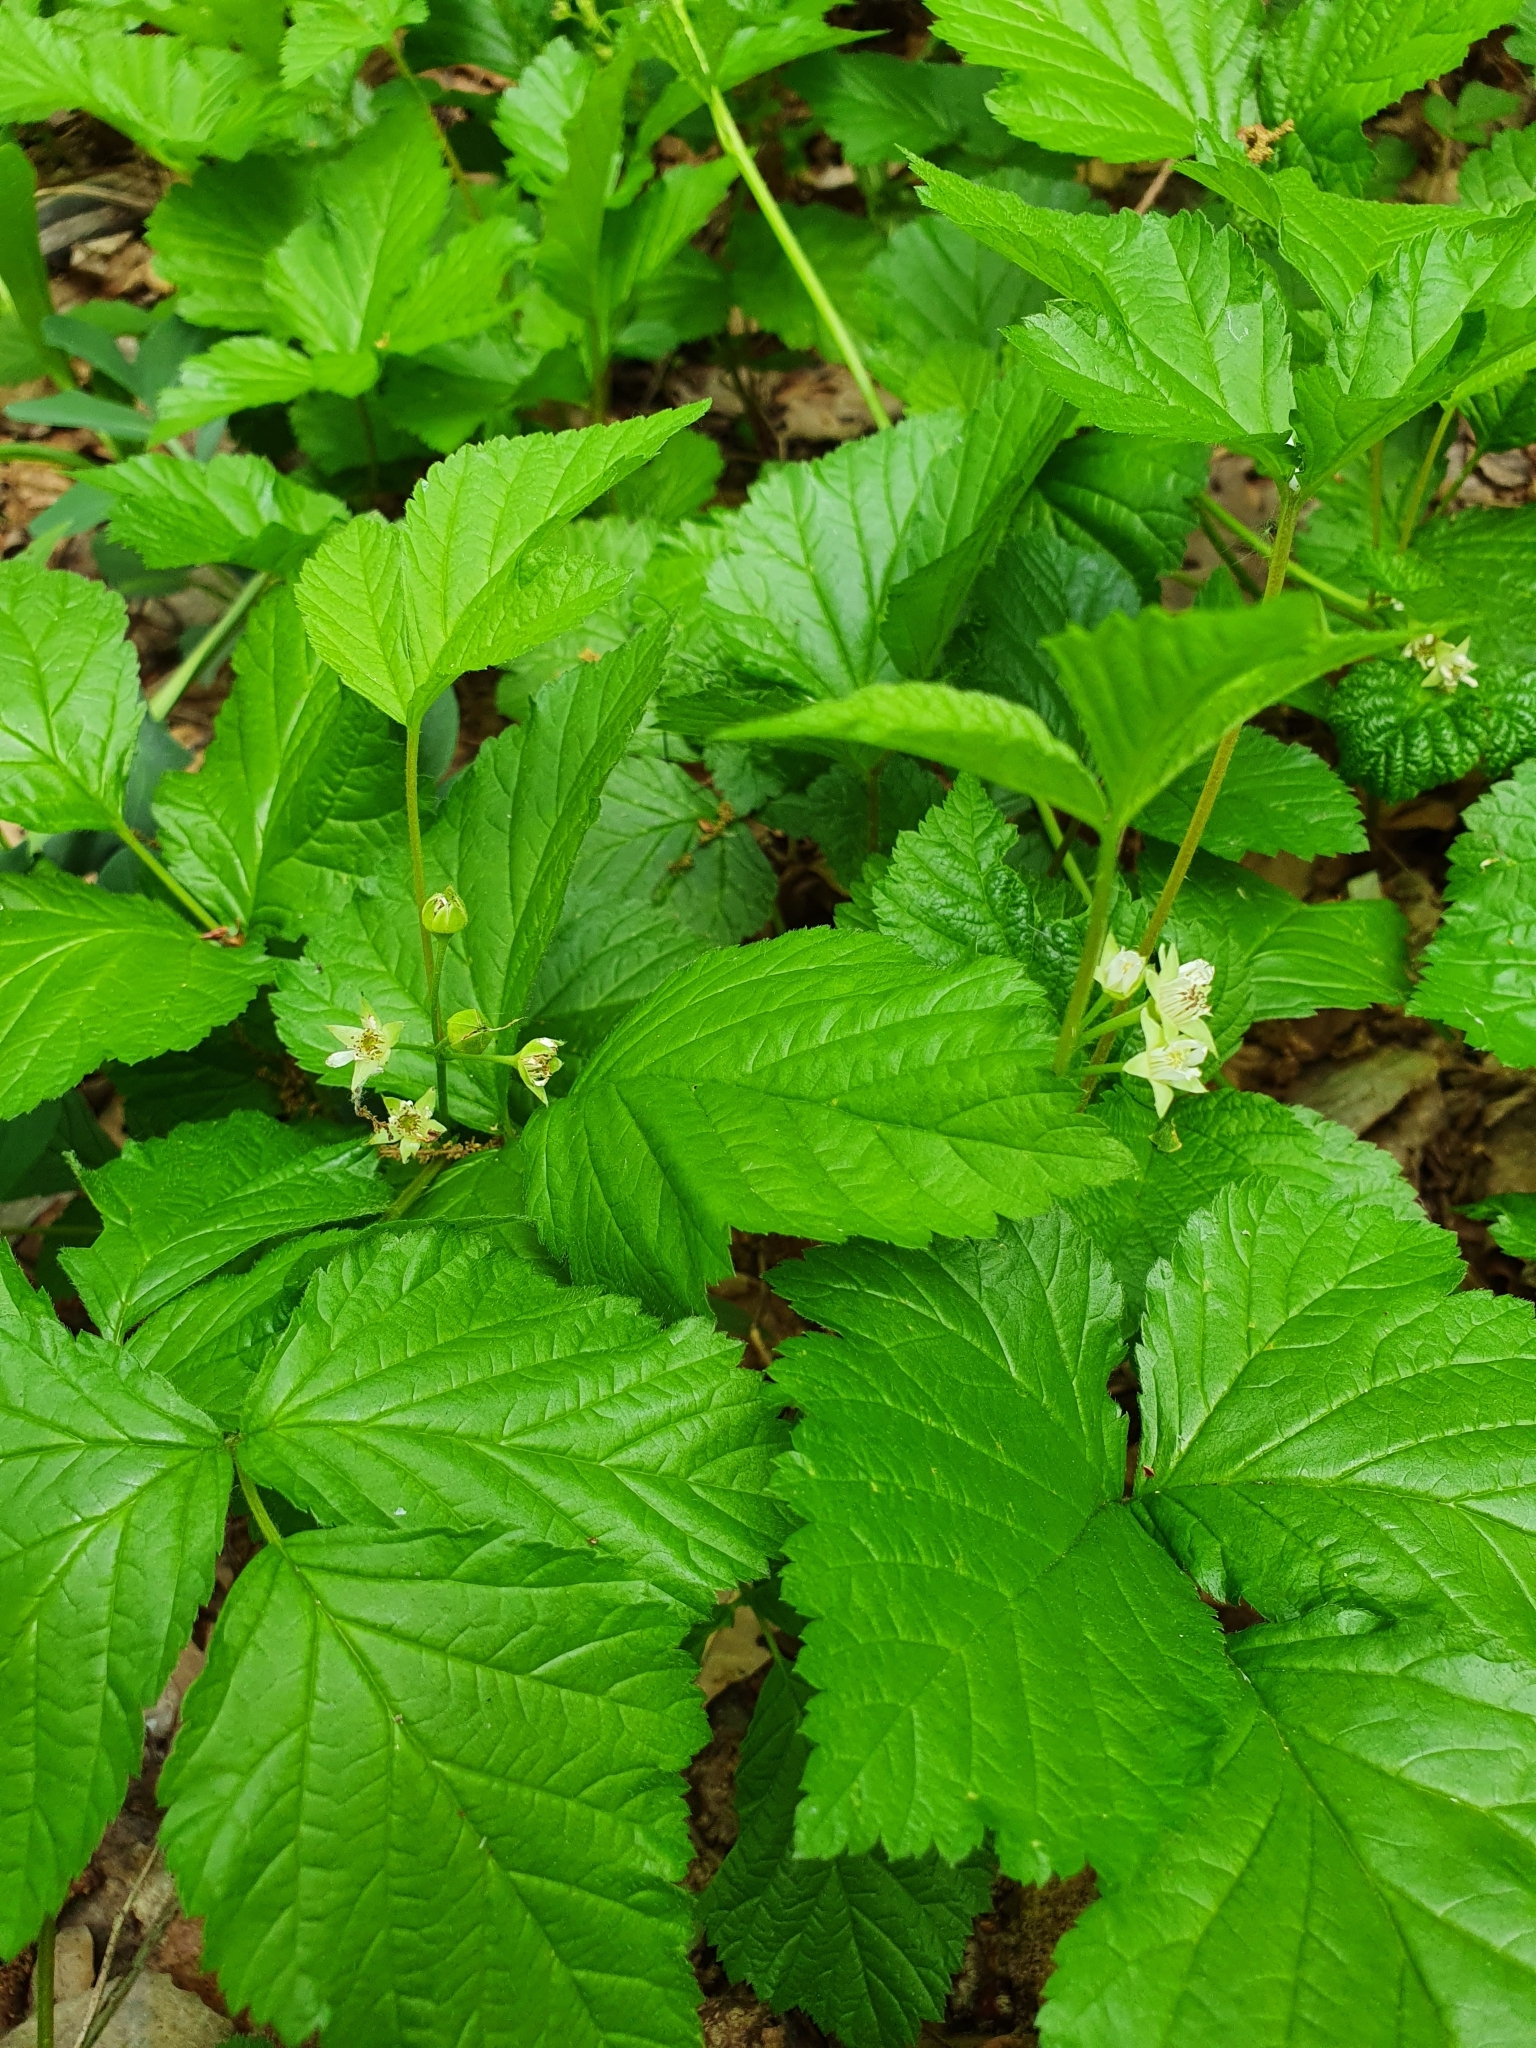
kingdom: Plantae
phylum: Tracheophyta
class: Magnoliopsida
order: Rosales
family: Rosaceae
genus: Rubus
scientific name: Rubus saxatilis
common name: Stone bramble
